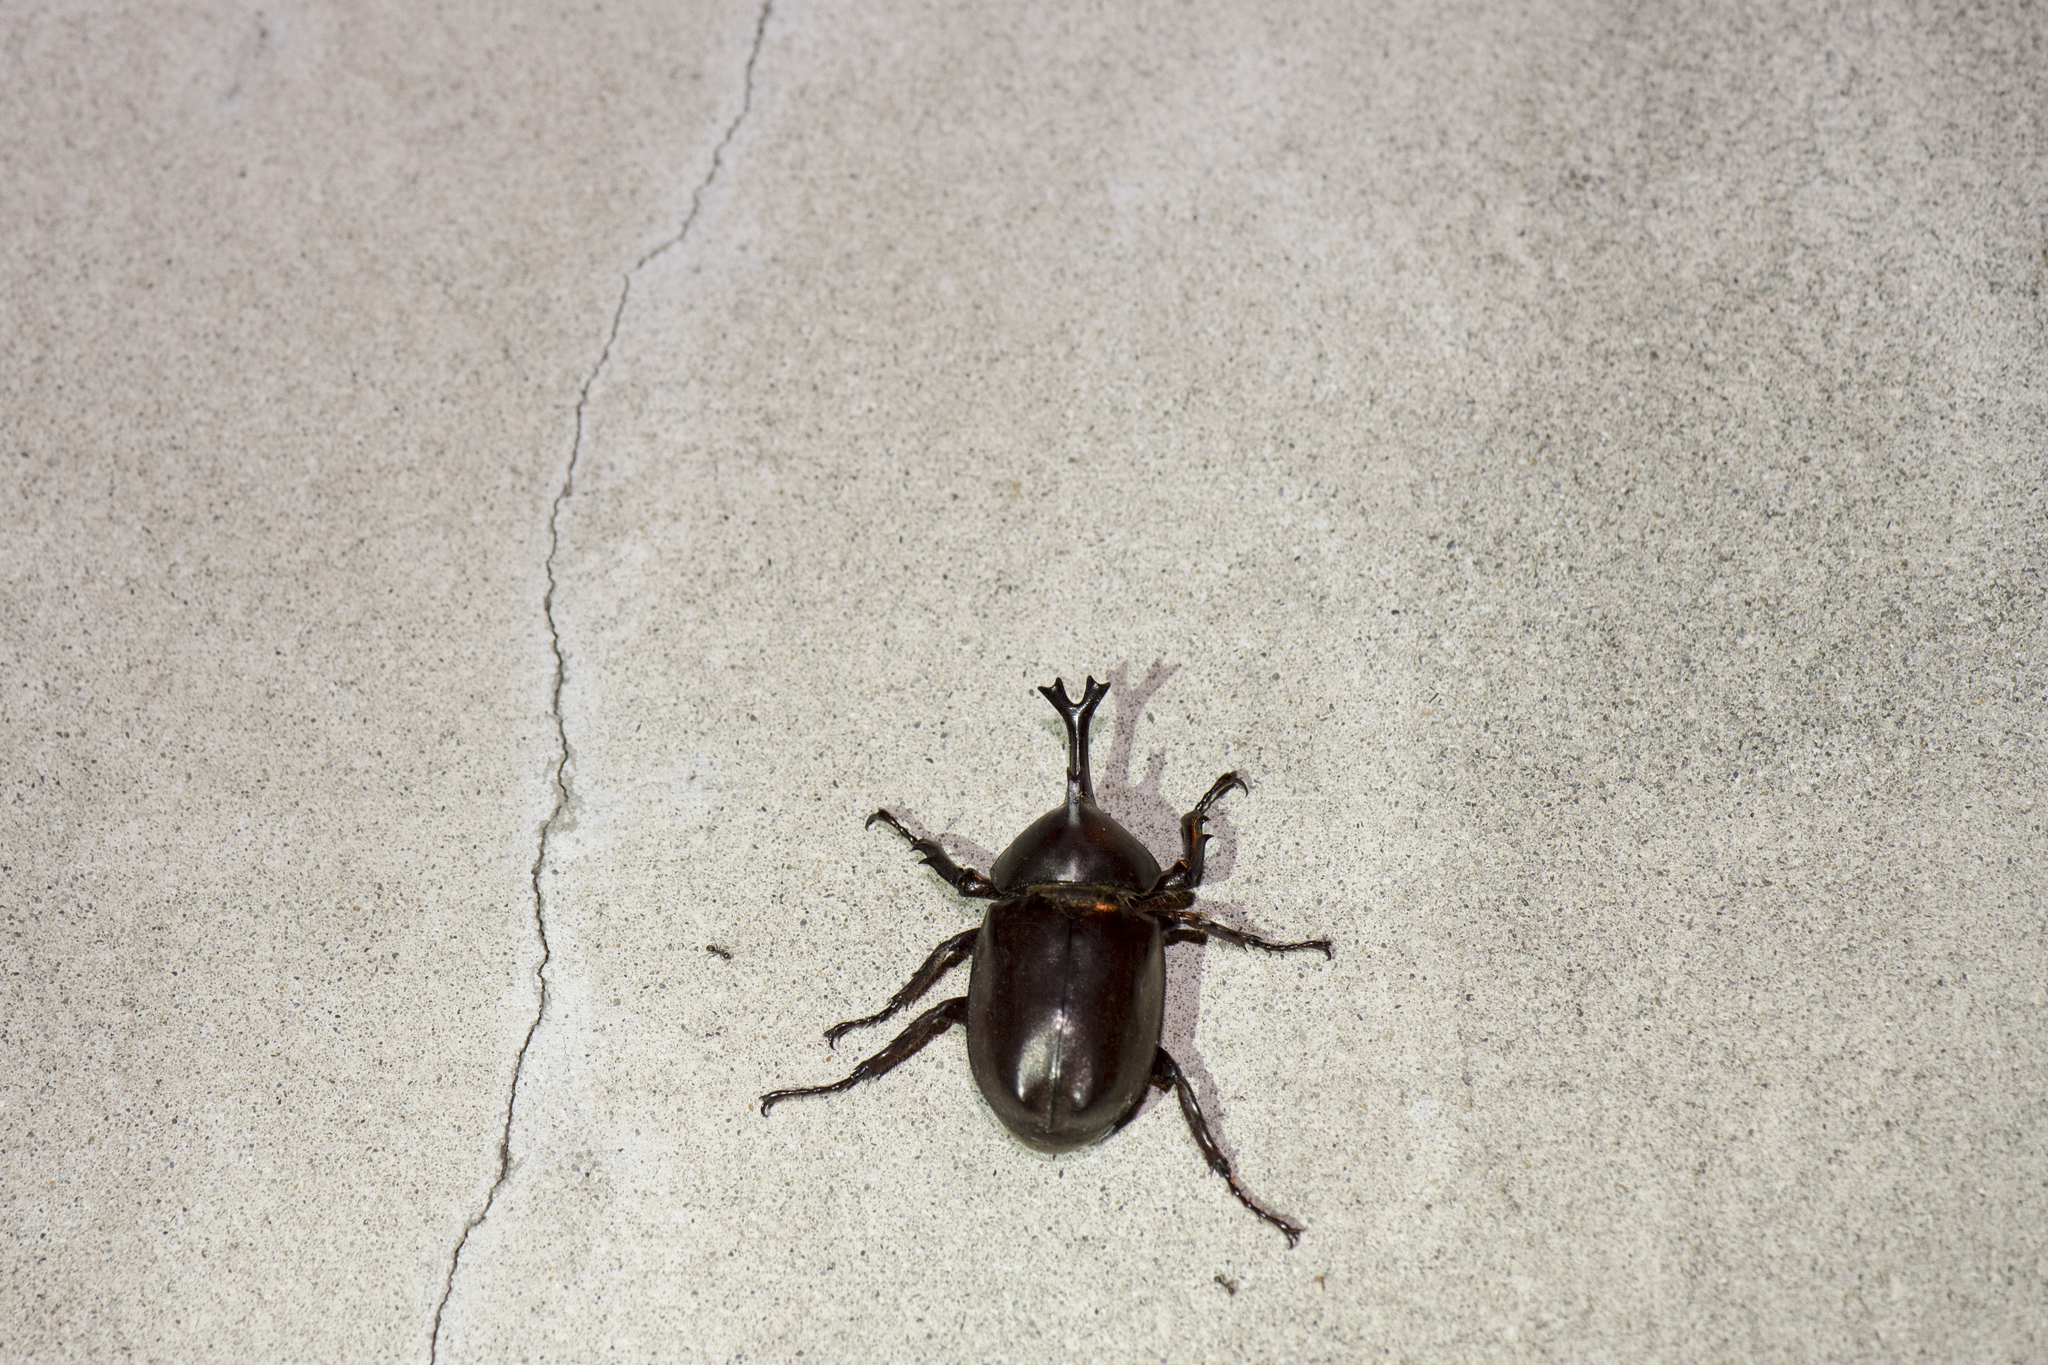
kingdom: Animalia
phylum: Arthropoda
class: Insecta
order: Coleoptera
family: Scarabaeidae
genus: Trypoxylus
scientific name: Trypoxylus dichotomus
